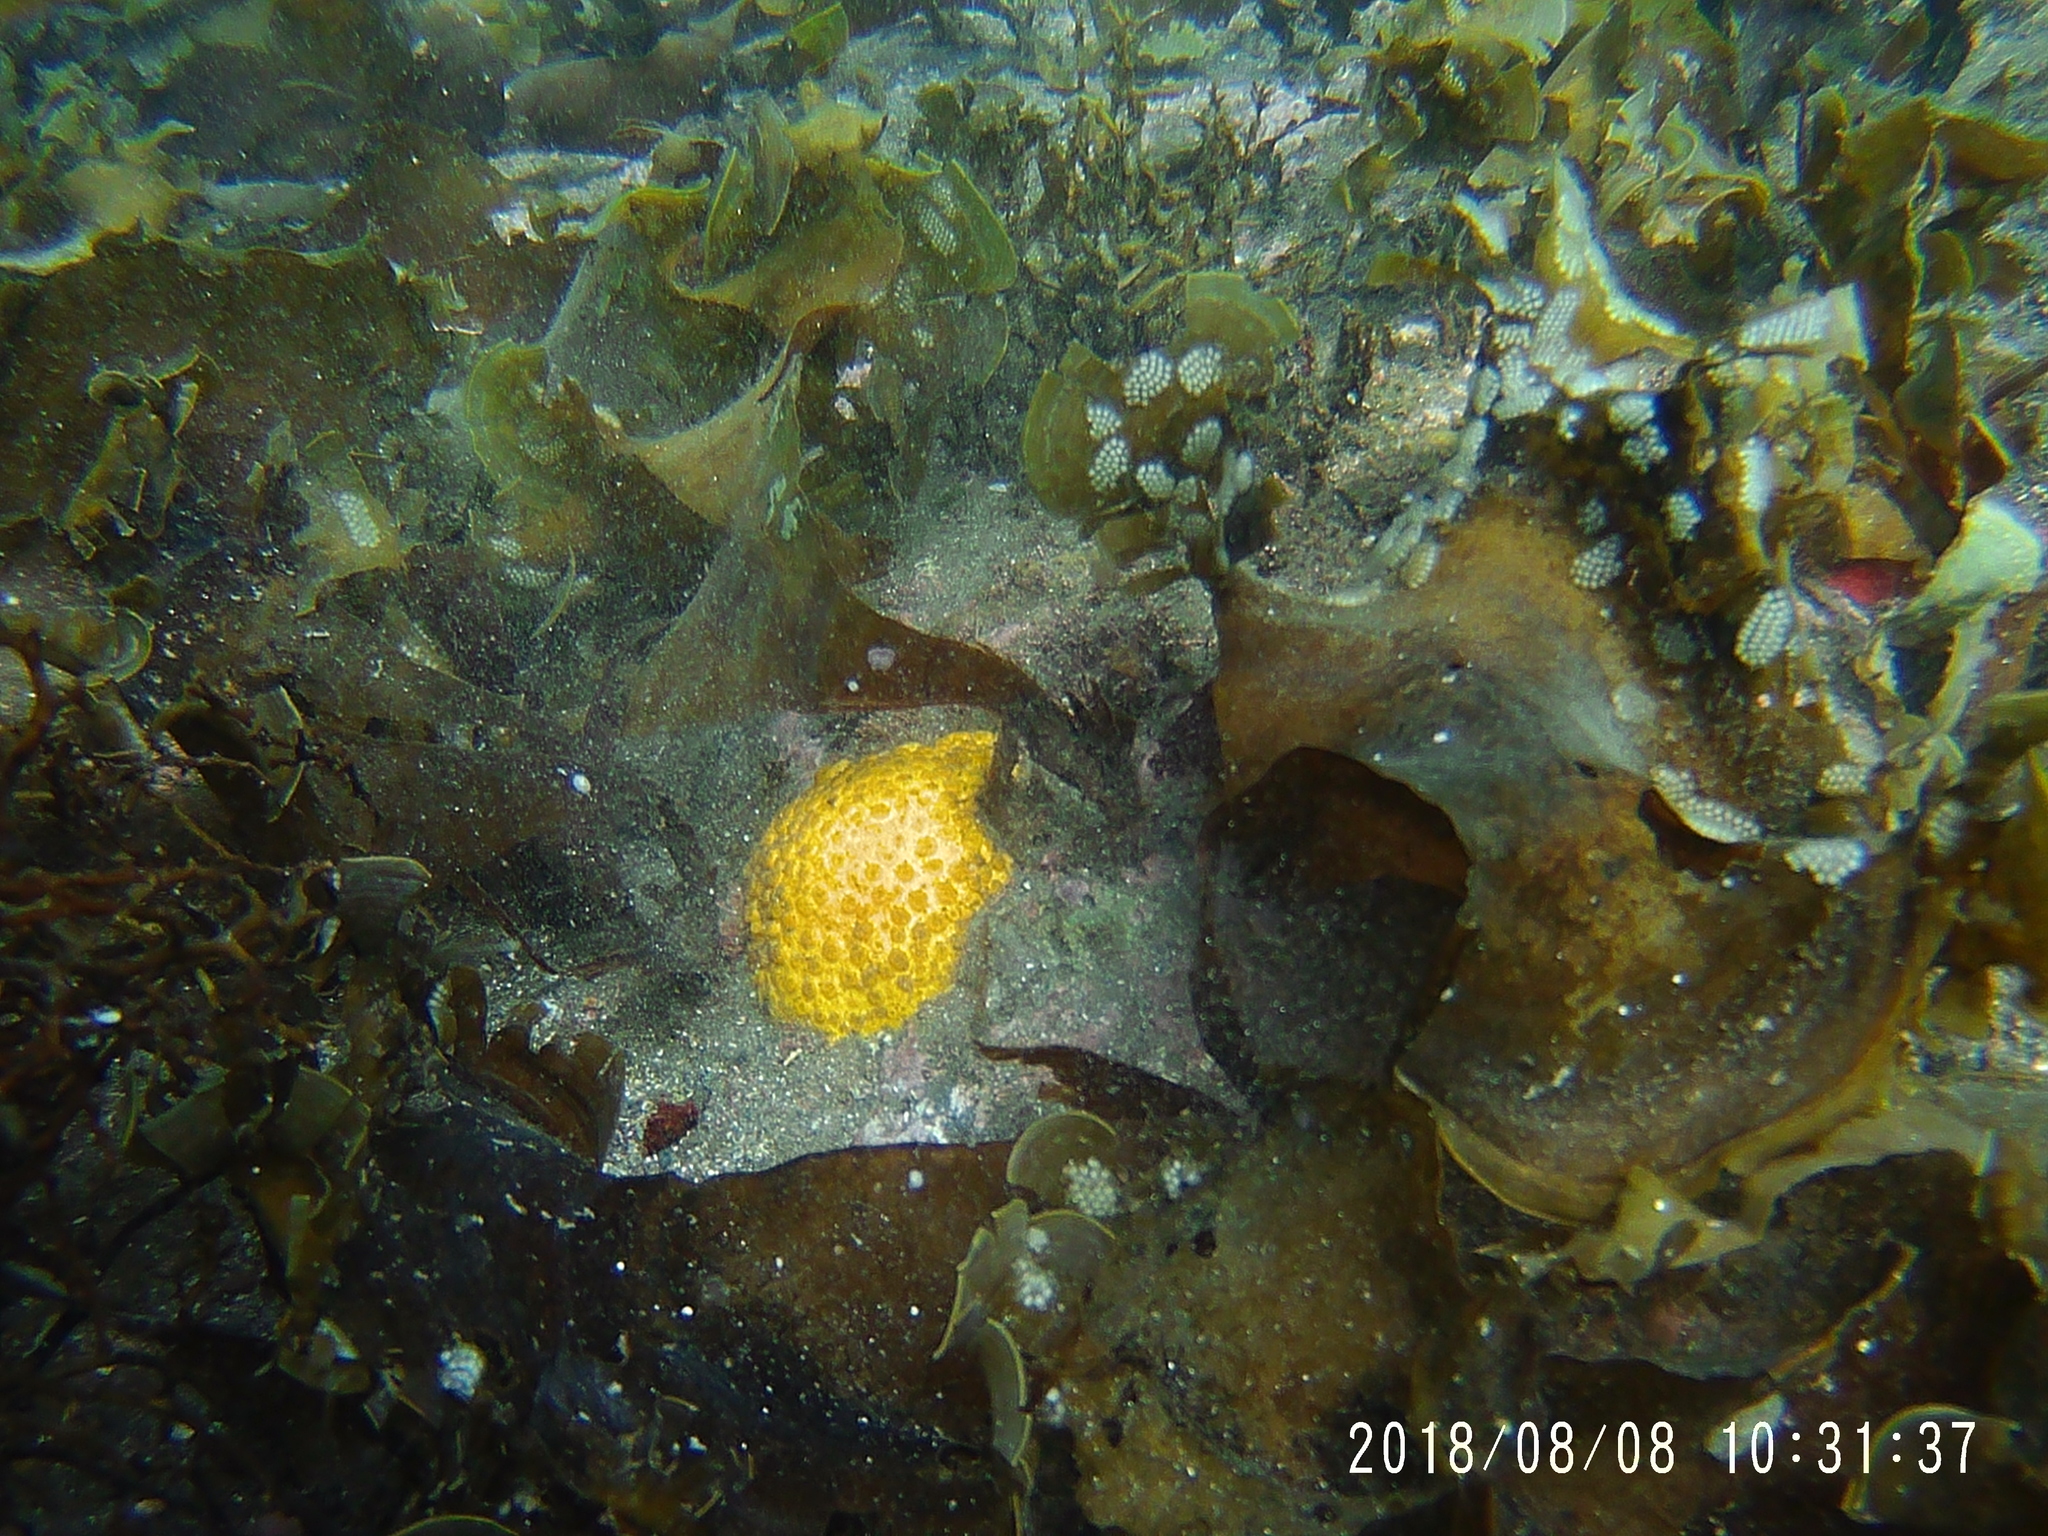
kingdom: Animalia
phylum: Porifera
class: Demospongiae
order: Clionaida
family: Clionaidae
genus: Cliona
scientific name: Cliona californiana
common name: California boring horny sponge
